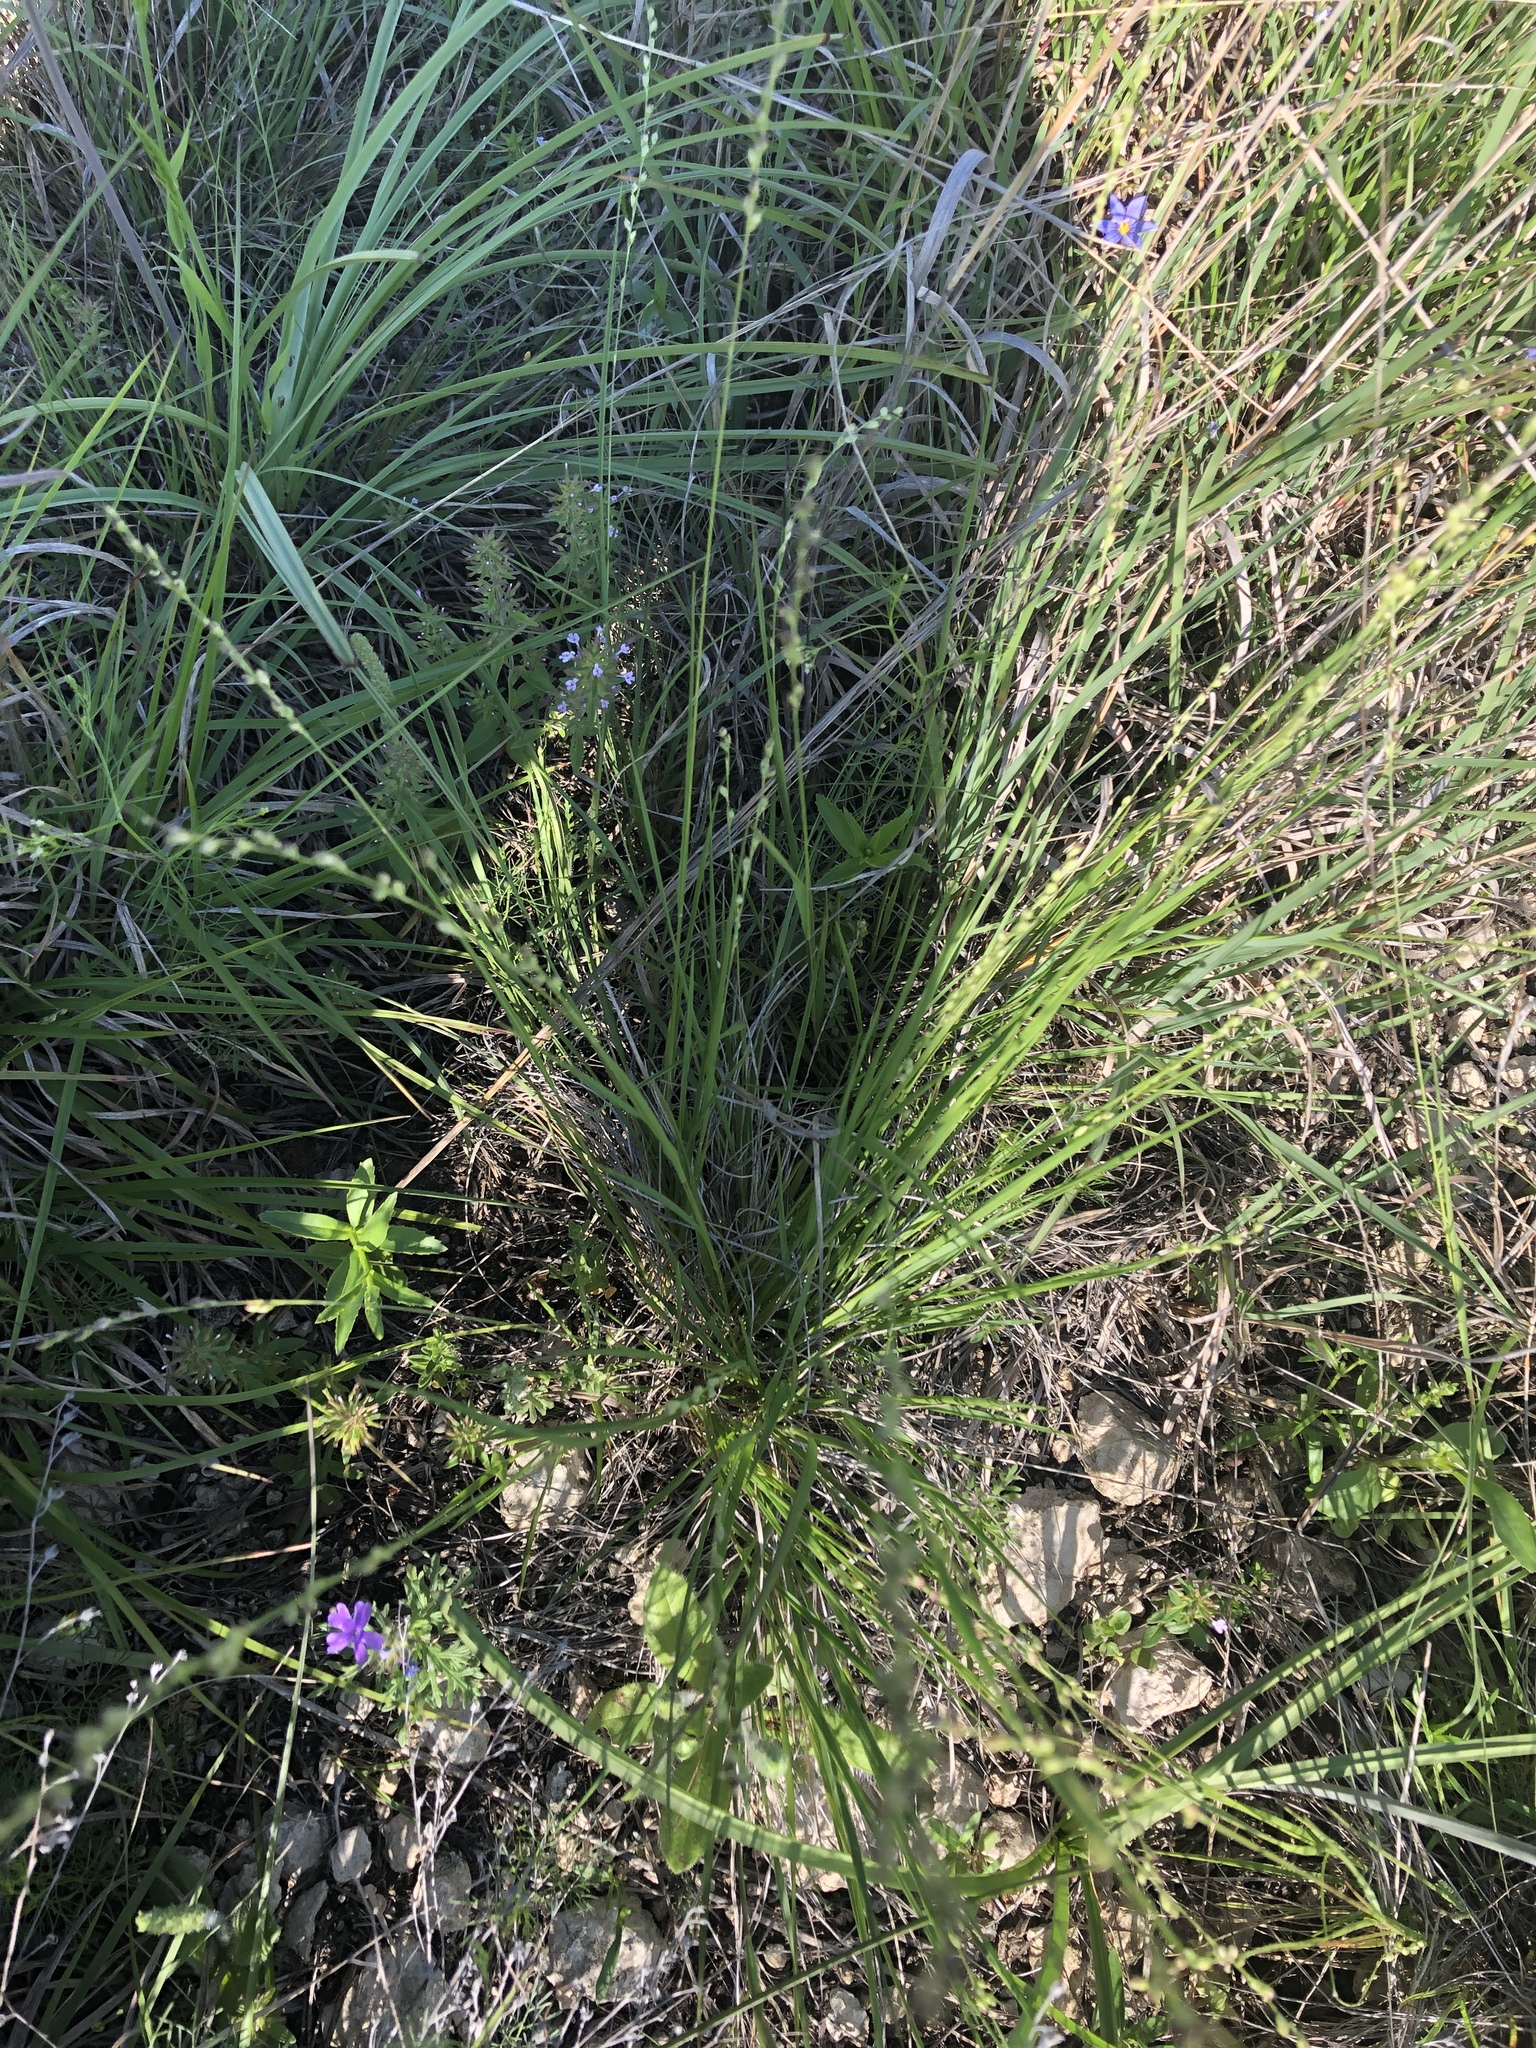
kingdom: Plantae
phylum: Tracheophyta
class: Liliopsida
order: Poales
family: Poaceae
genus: Setaria
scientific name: Setaria reverchonii
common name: Reverchon's bristle grass
